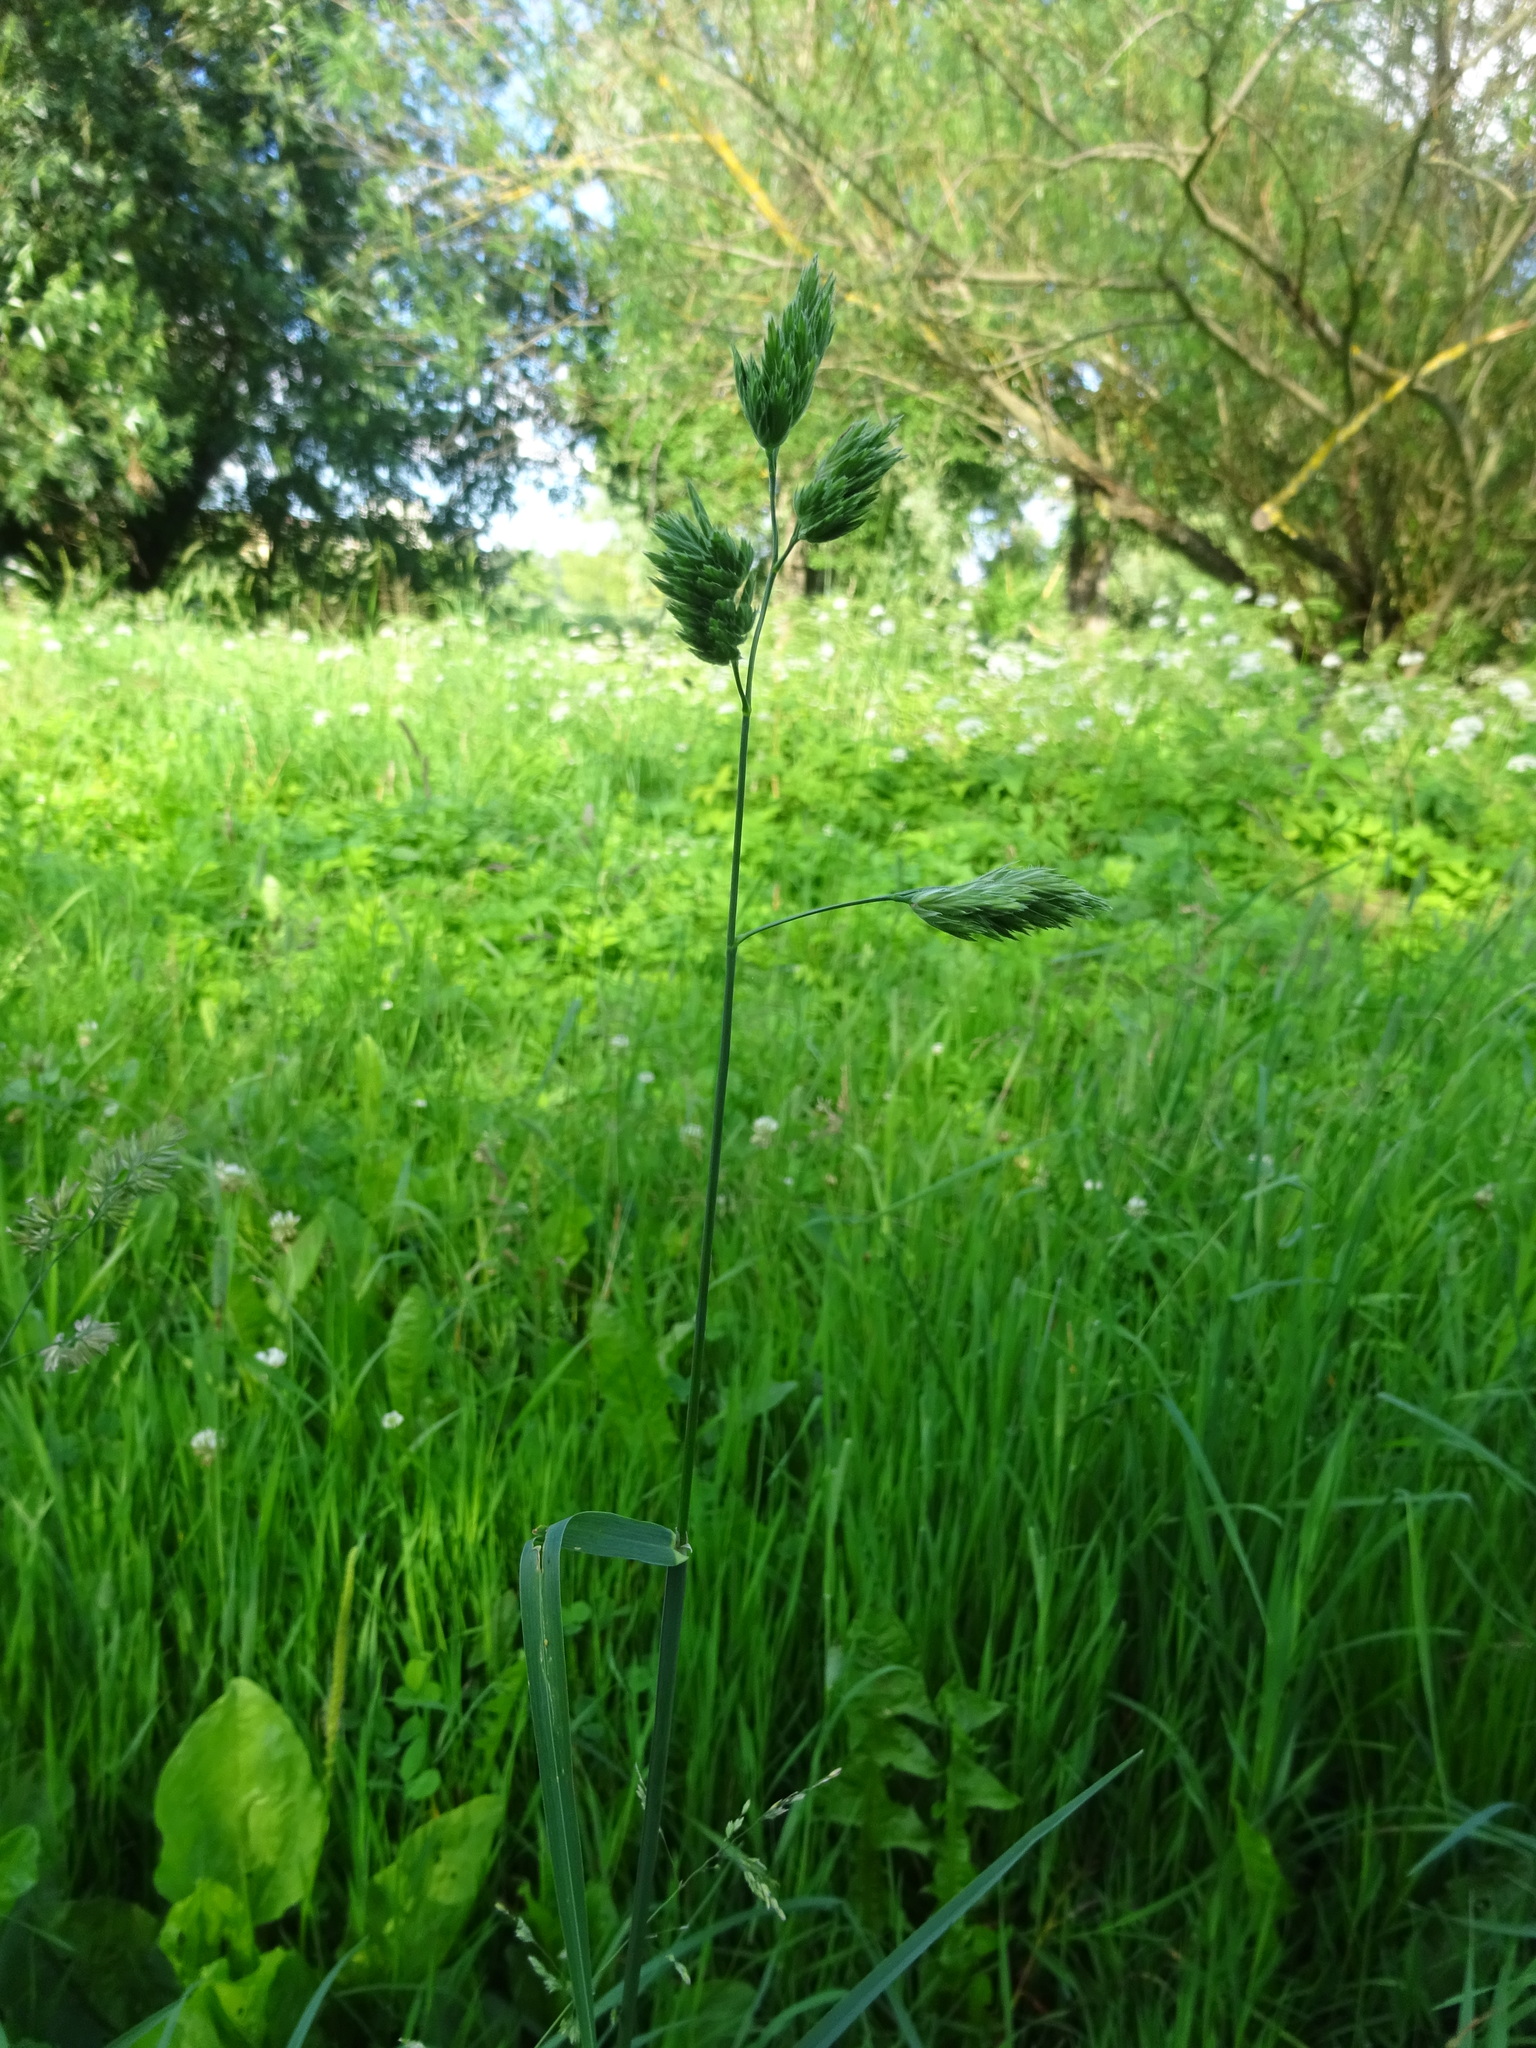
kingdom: Plantae
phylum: Tracheophyta
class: Liliopsida
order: Poales
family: Poaceae
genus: Dactylis
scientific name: Dactylis glomerata
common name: Orchardgrass
